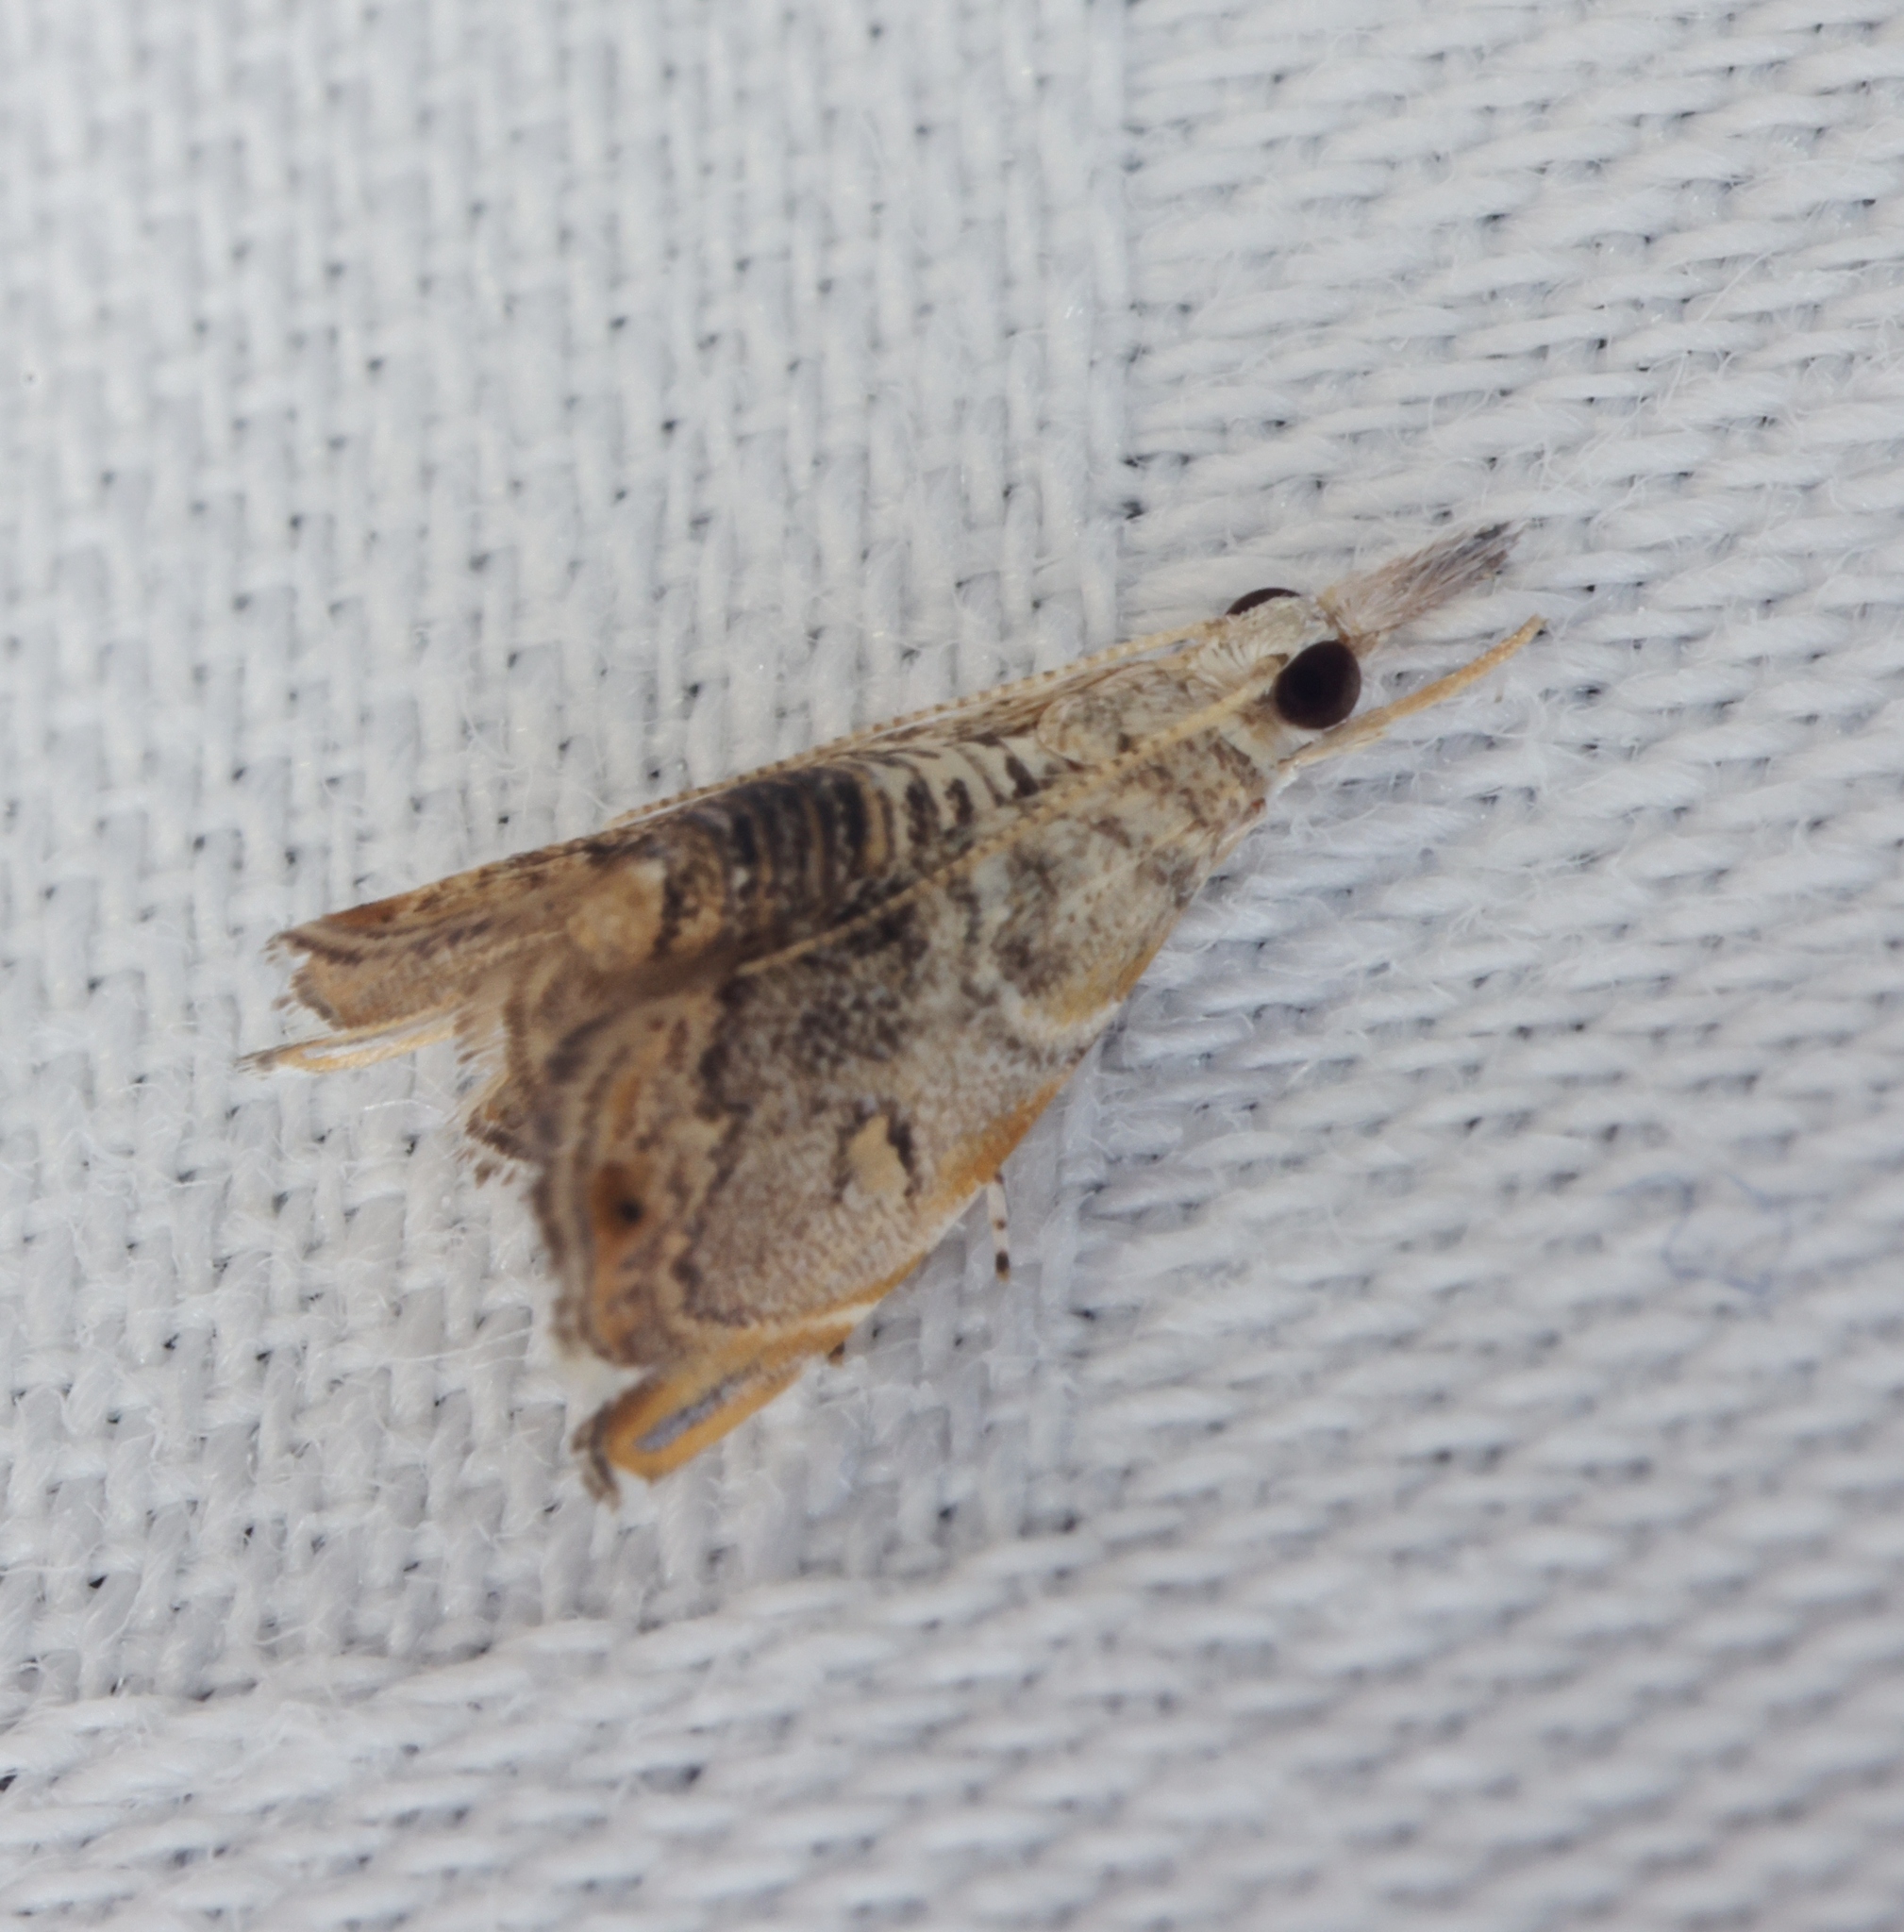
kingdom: Animalia
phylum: Arthropoda
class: Insecta
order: Lepidoptera
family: Crambidae
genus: Glaucocharis
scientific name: Glaucocharis siciformis
